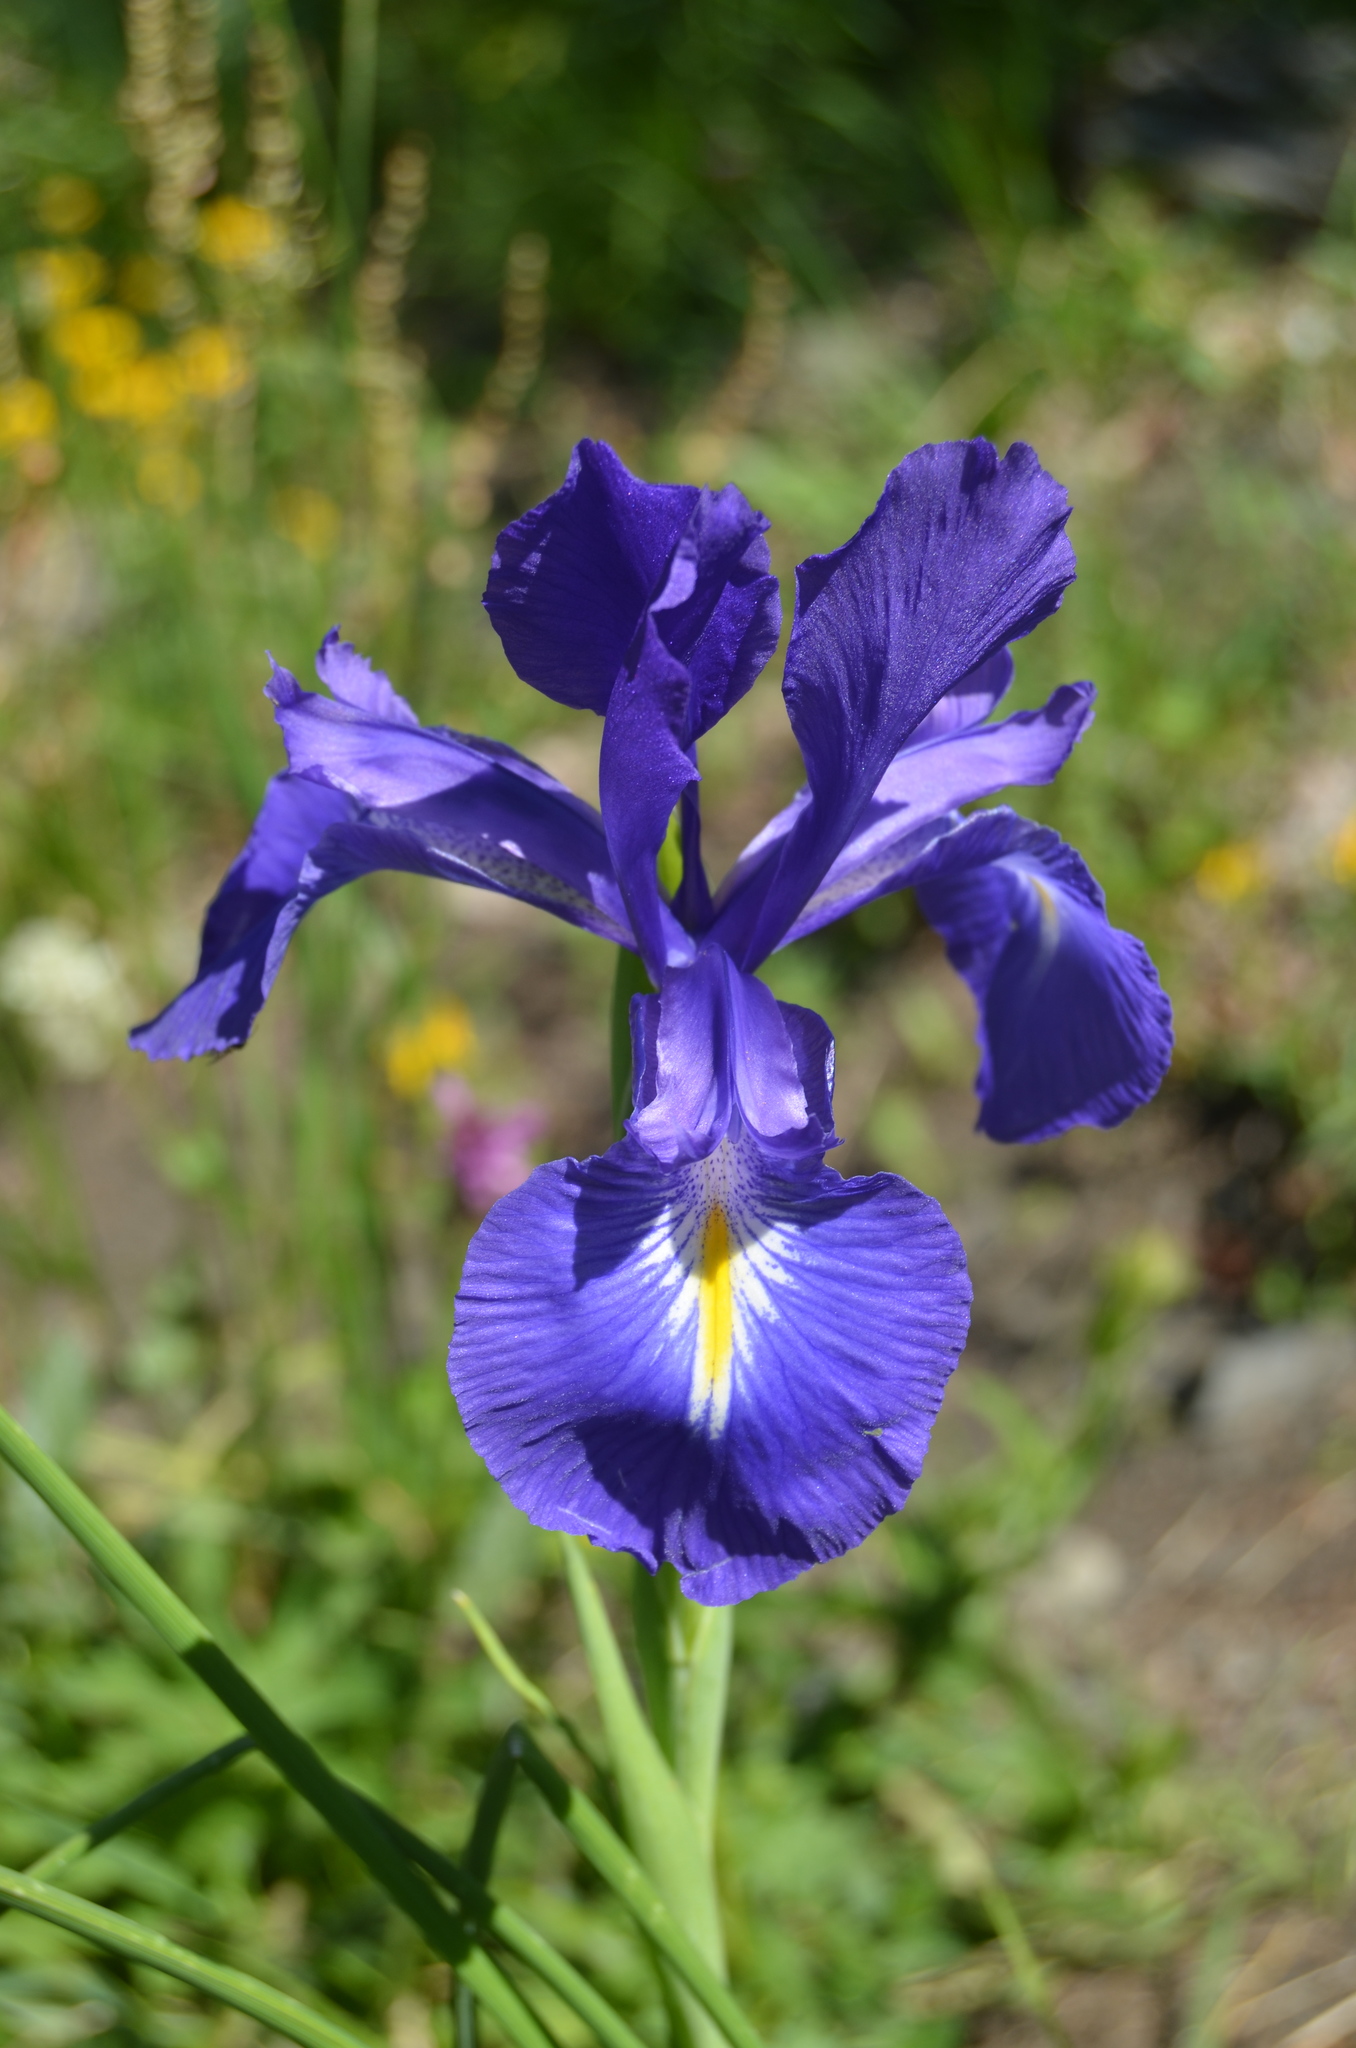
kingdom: Plantae
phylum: Tracheophyta
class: Liliopsida
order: Asparagales
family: Iridaceae
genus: Iris
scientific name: Iris
